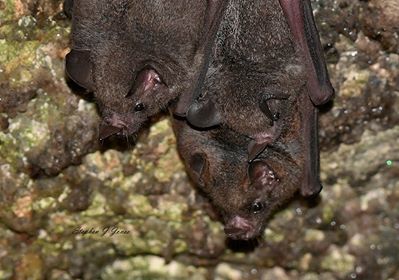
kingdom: Animalia
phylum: Chordata
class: Mammalia
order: Chiroptera
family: Phyllostomidae
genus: Carollia
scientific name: Carollia perspicillata
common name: Seba's short-tailed bat
